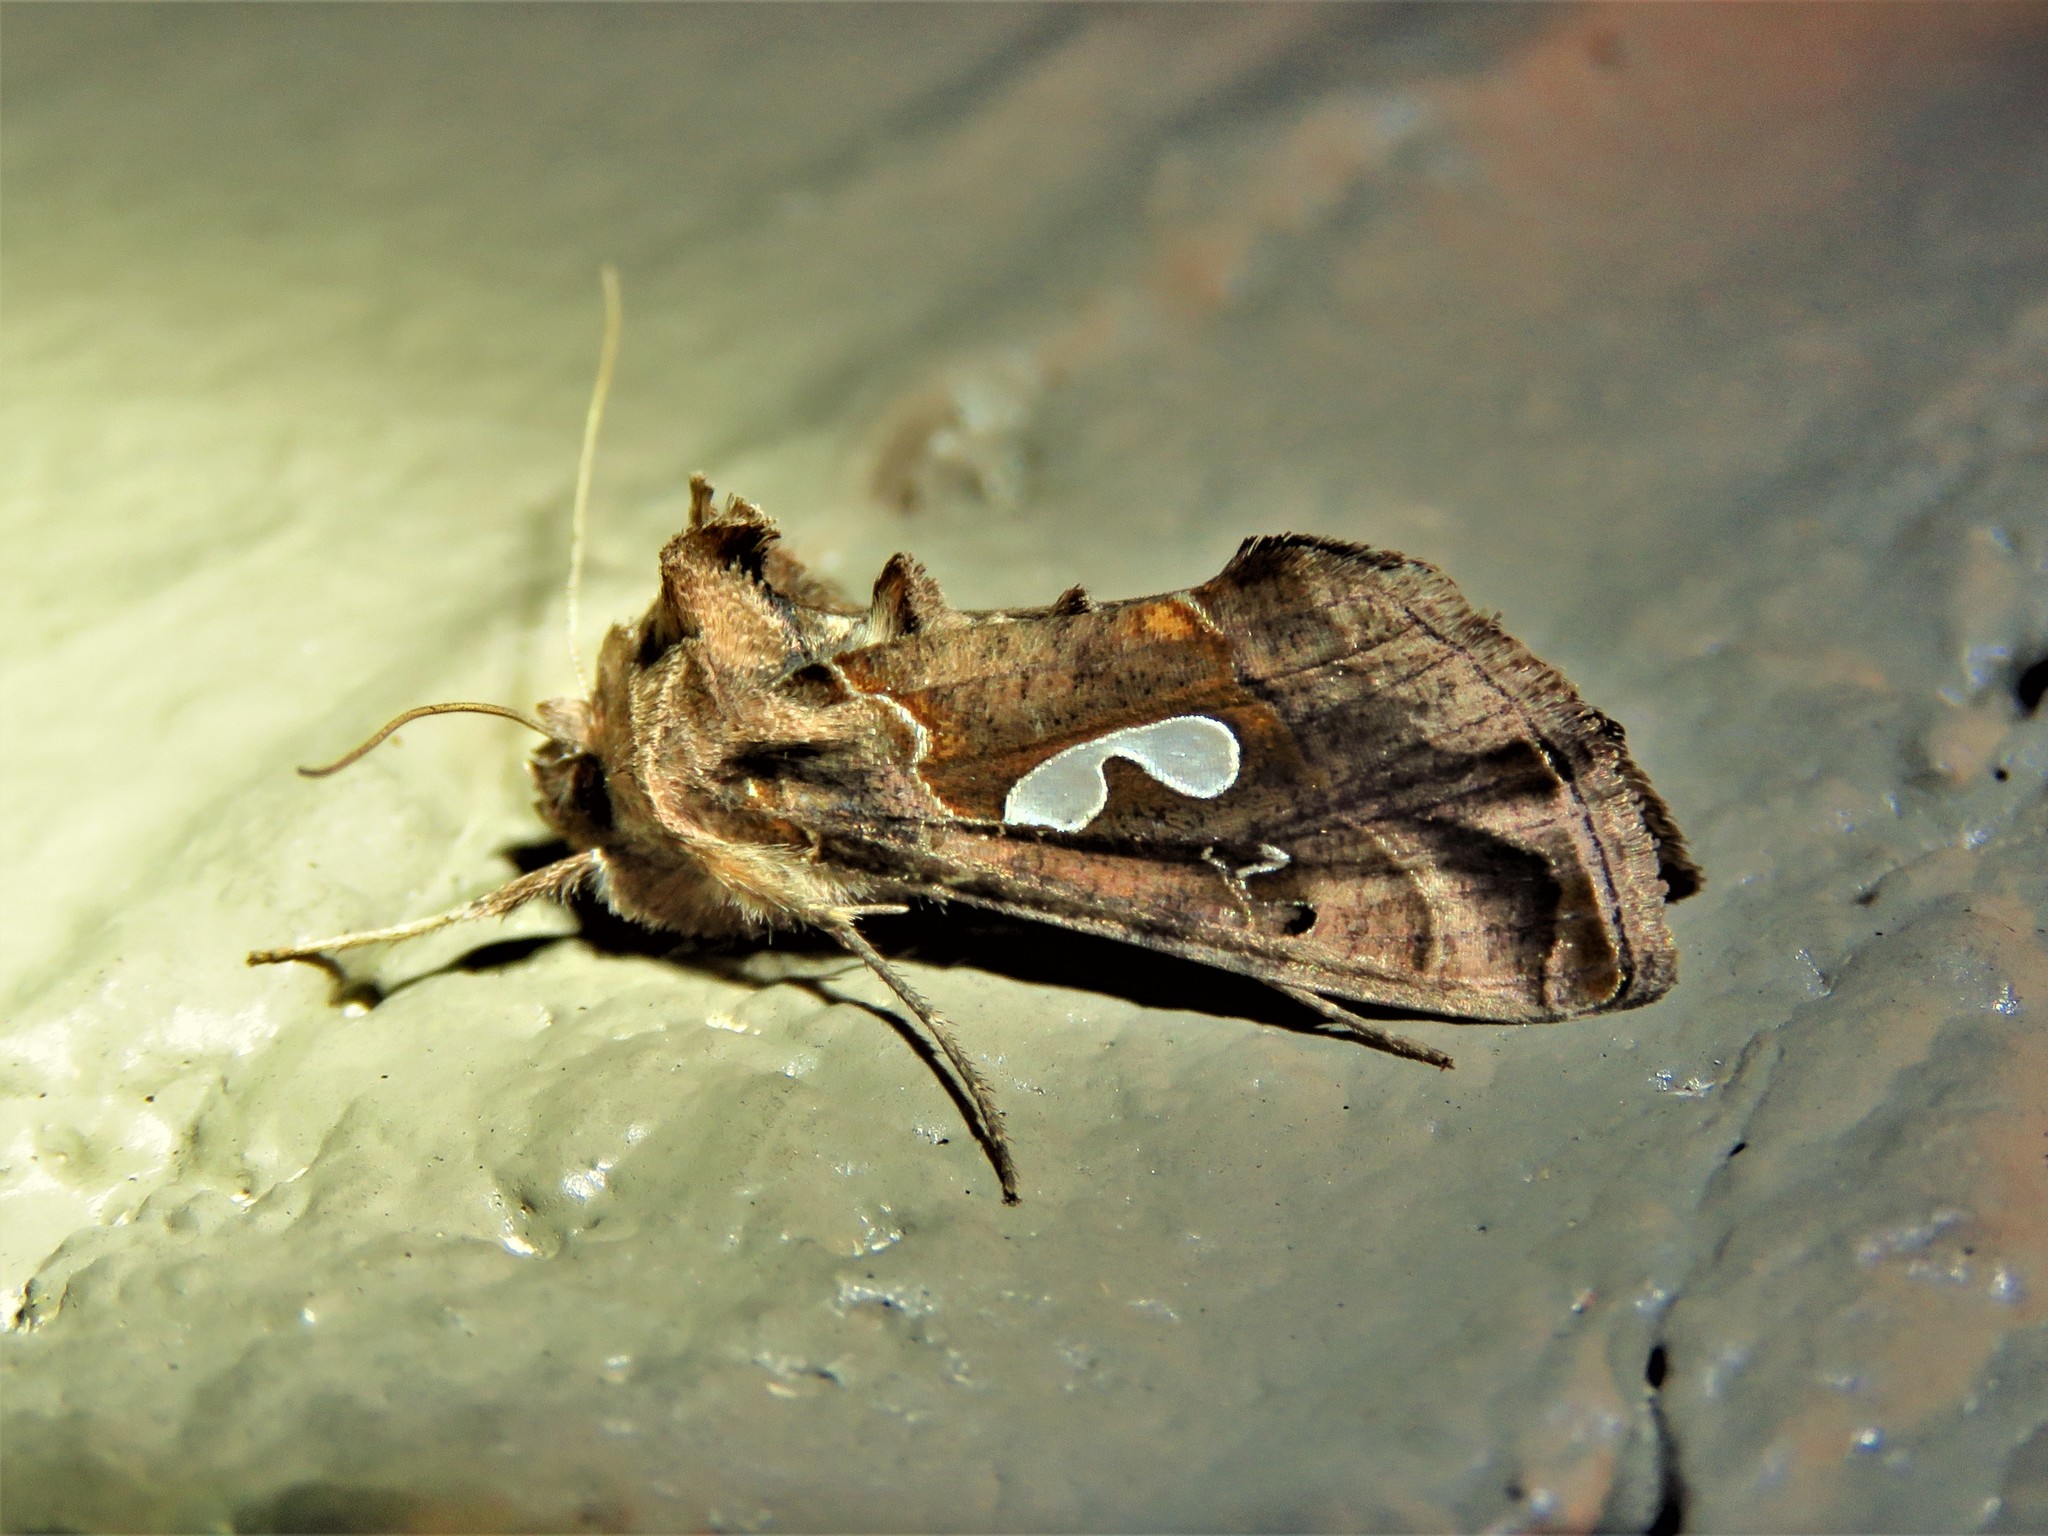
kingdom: Animalia
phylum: Arthropoda
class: Insecta
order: Lepidoptera
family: Noctuidae
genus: Megalographa
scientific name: Megalographa biloba
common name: Cutworm
